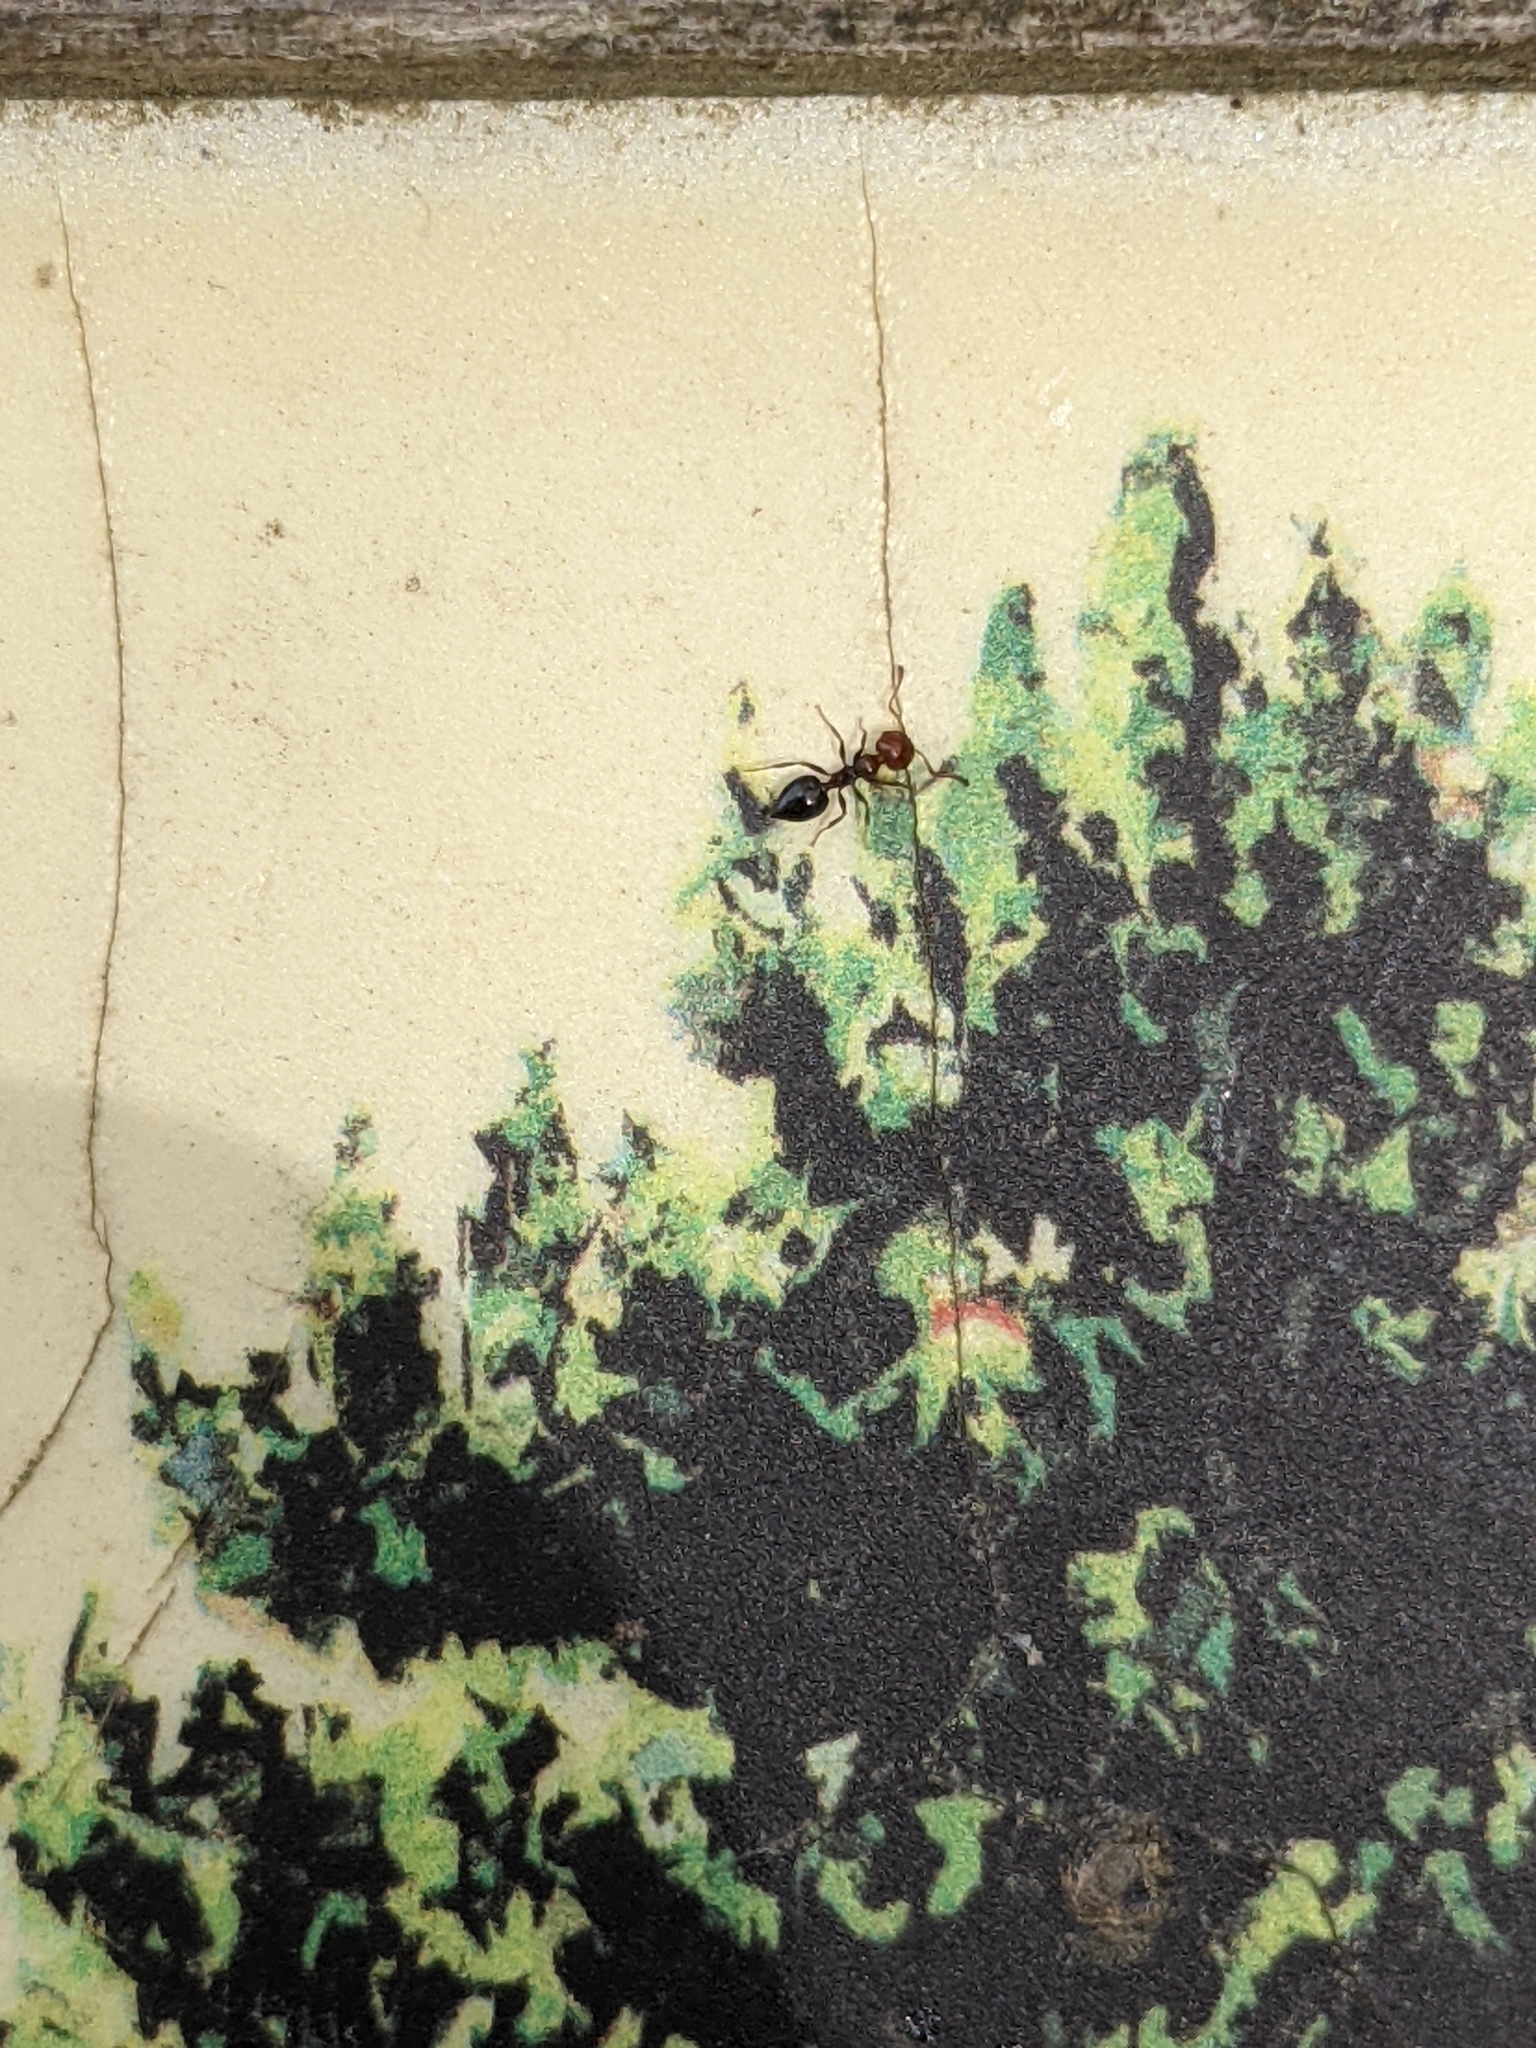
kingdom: Animalia
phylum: Arthropoda
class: Insecta
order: Hymenoptera
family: Formicidae
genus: Crematogaster
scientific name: Crematogaster scutellaris
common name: Fourmi du liège
